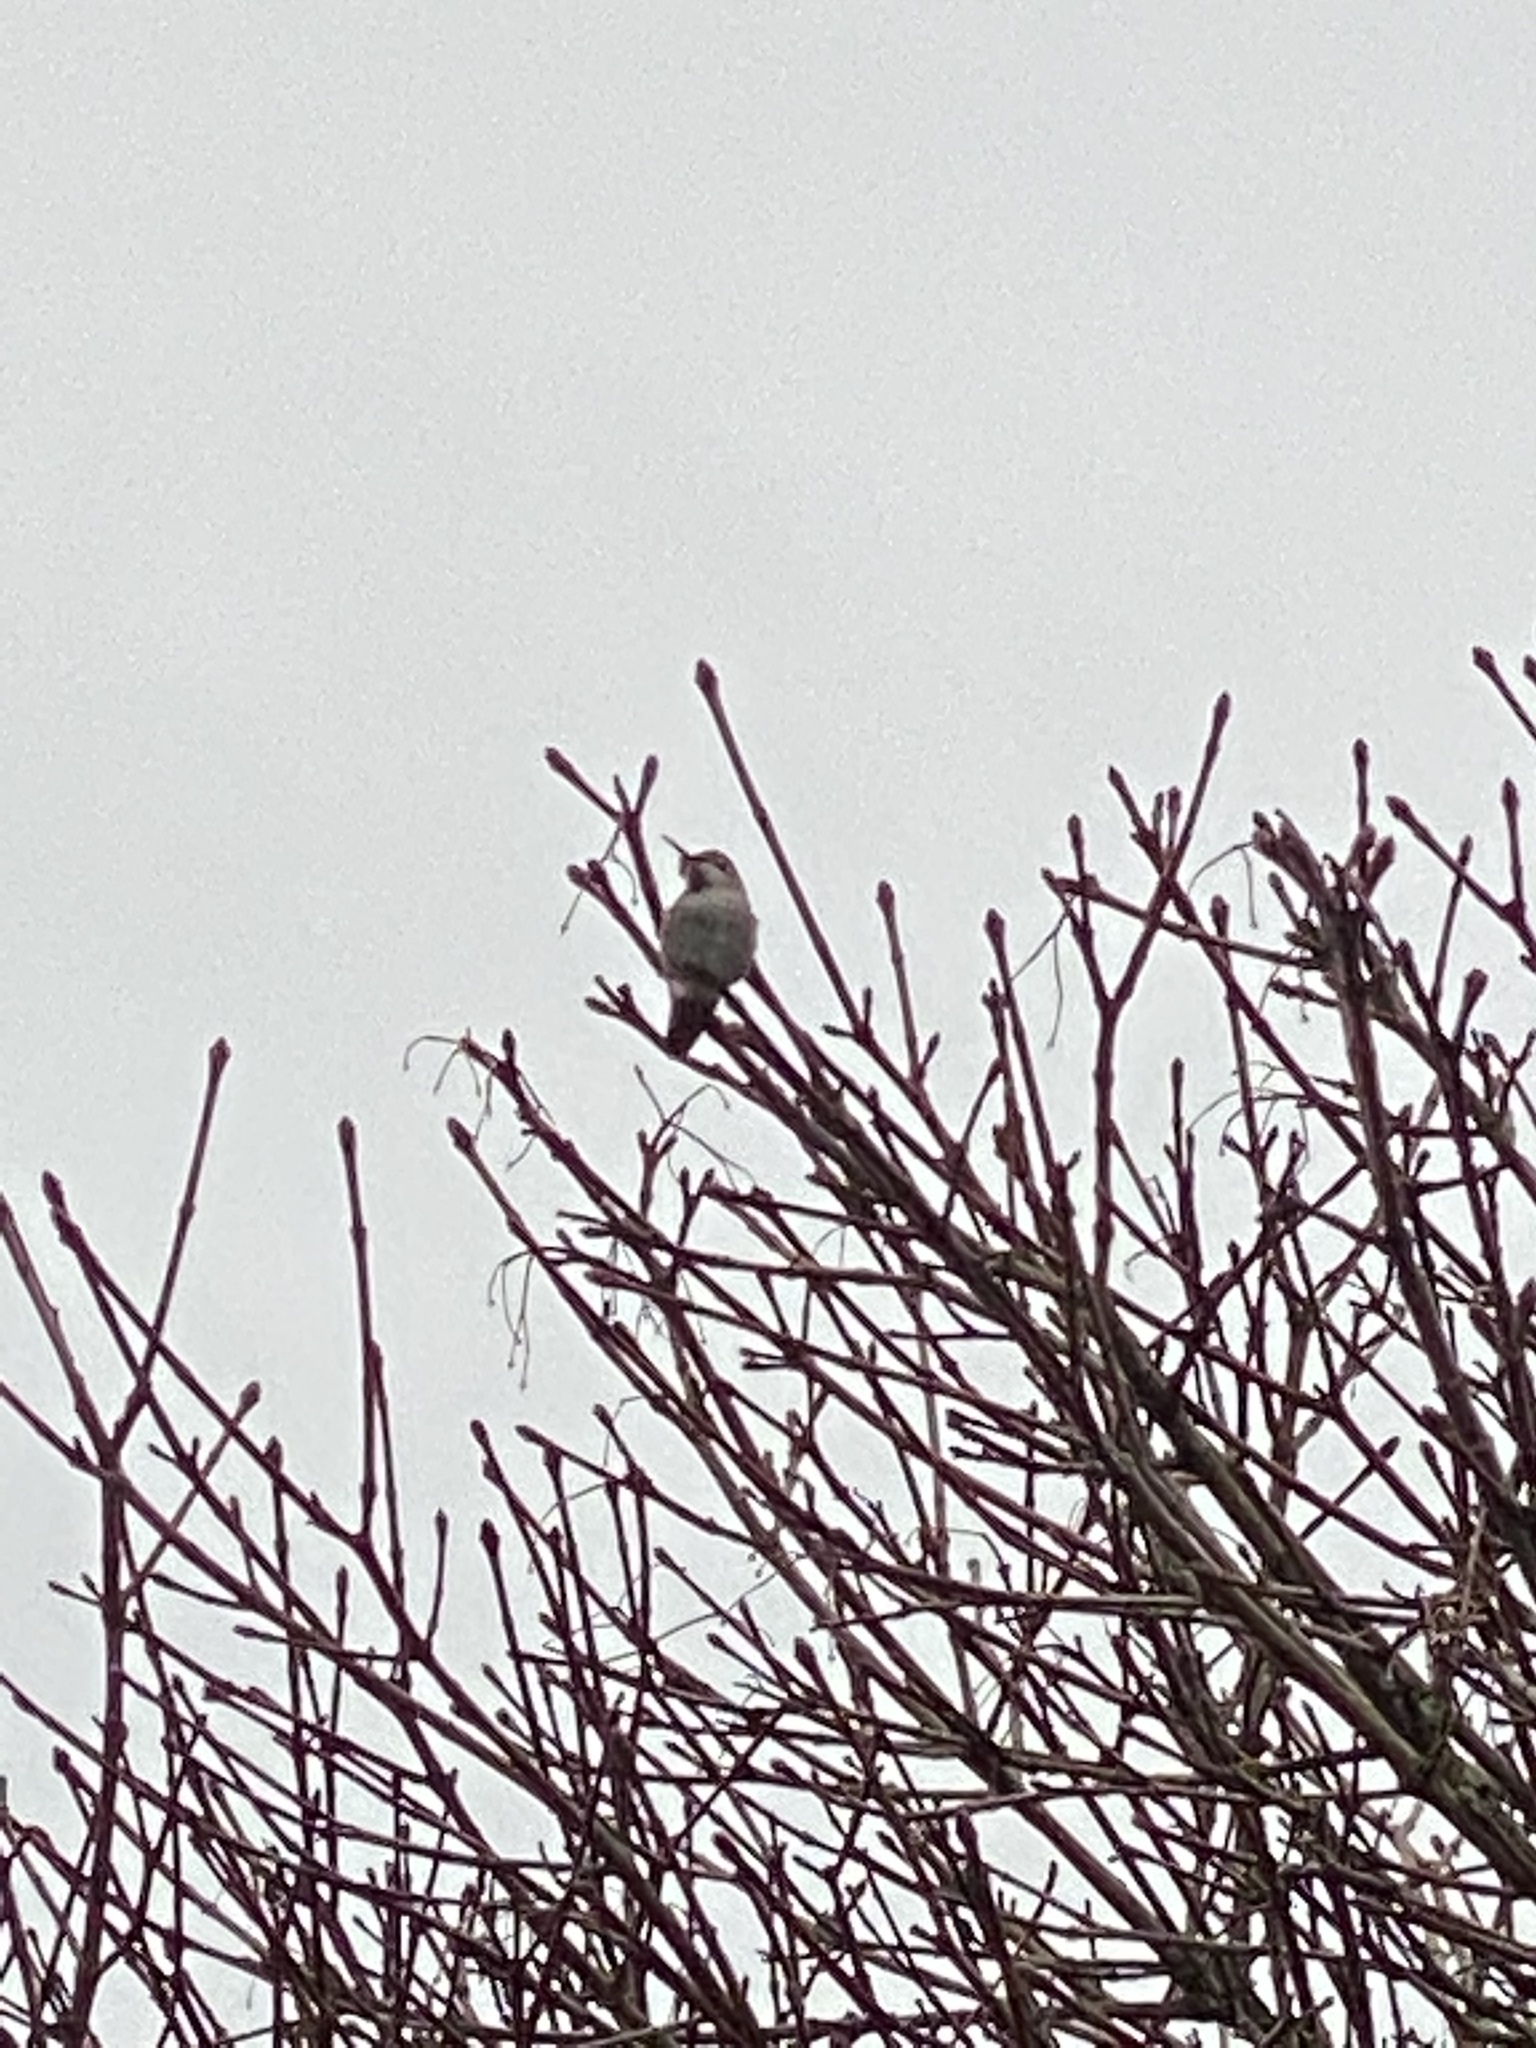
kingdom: Animalia
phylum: Chordata
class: Aves
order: Apodiformes
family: Trochilidae
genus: Calypte
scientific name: Calypte anna
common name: Anna's hummingbird
